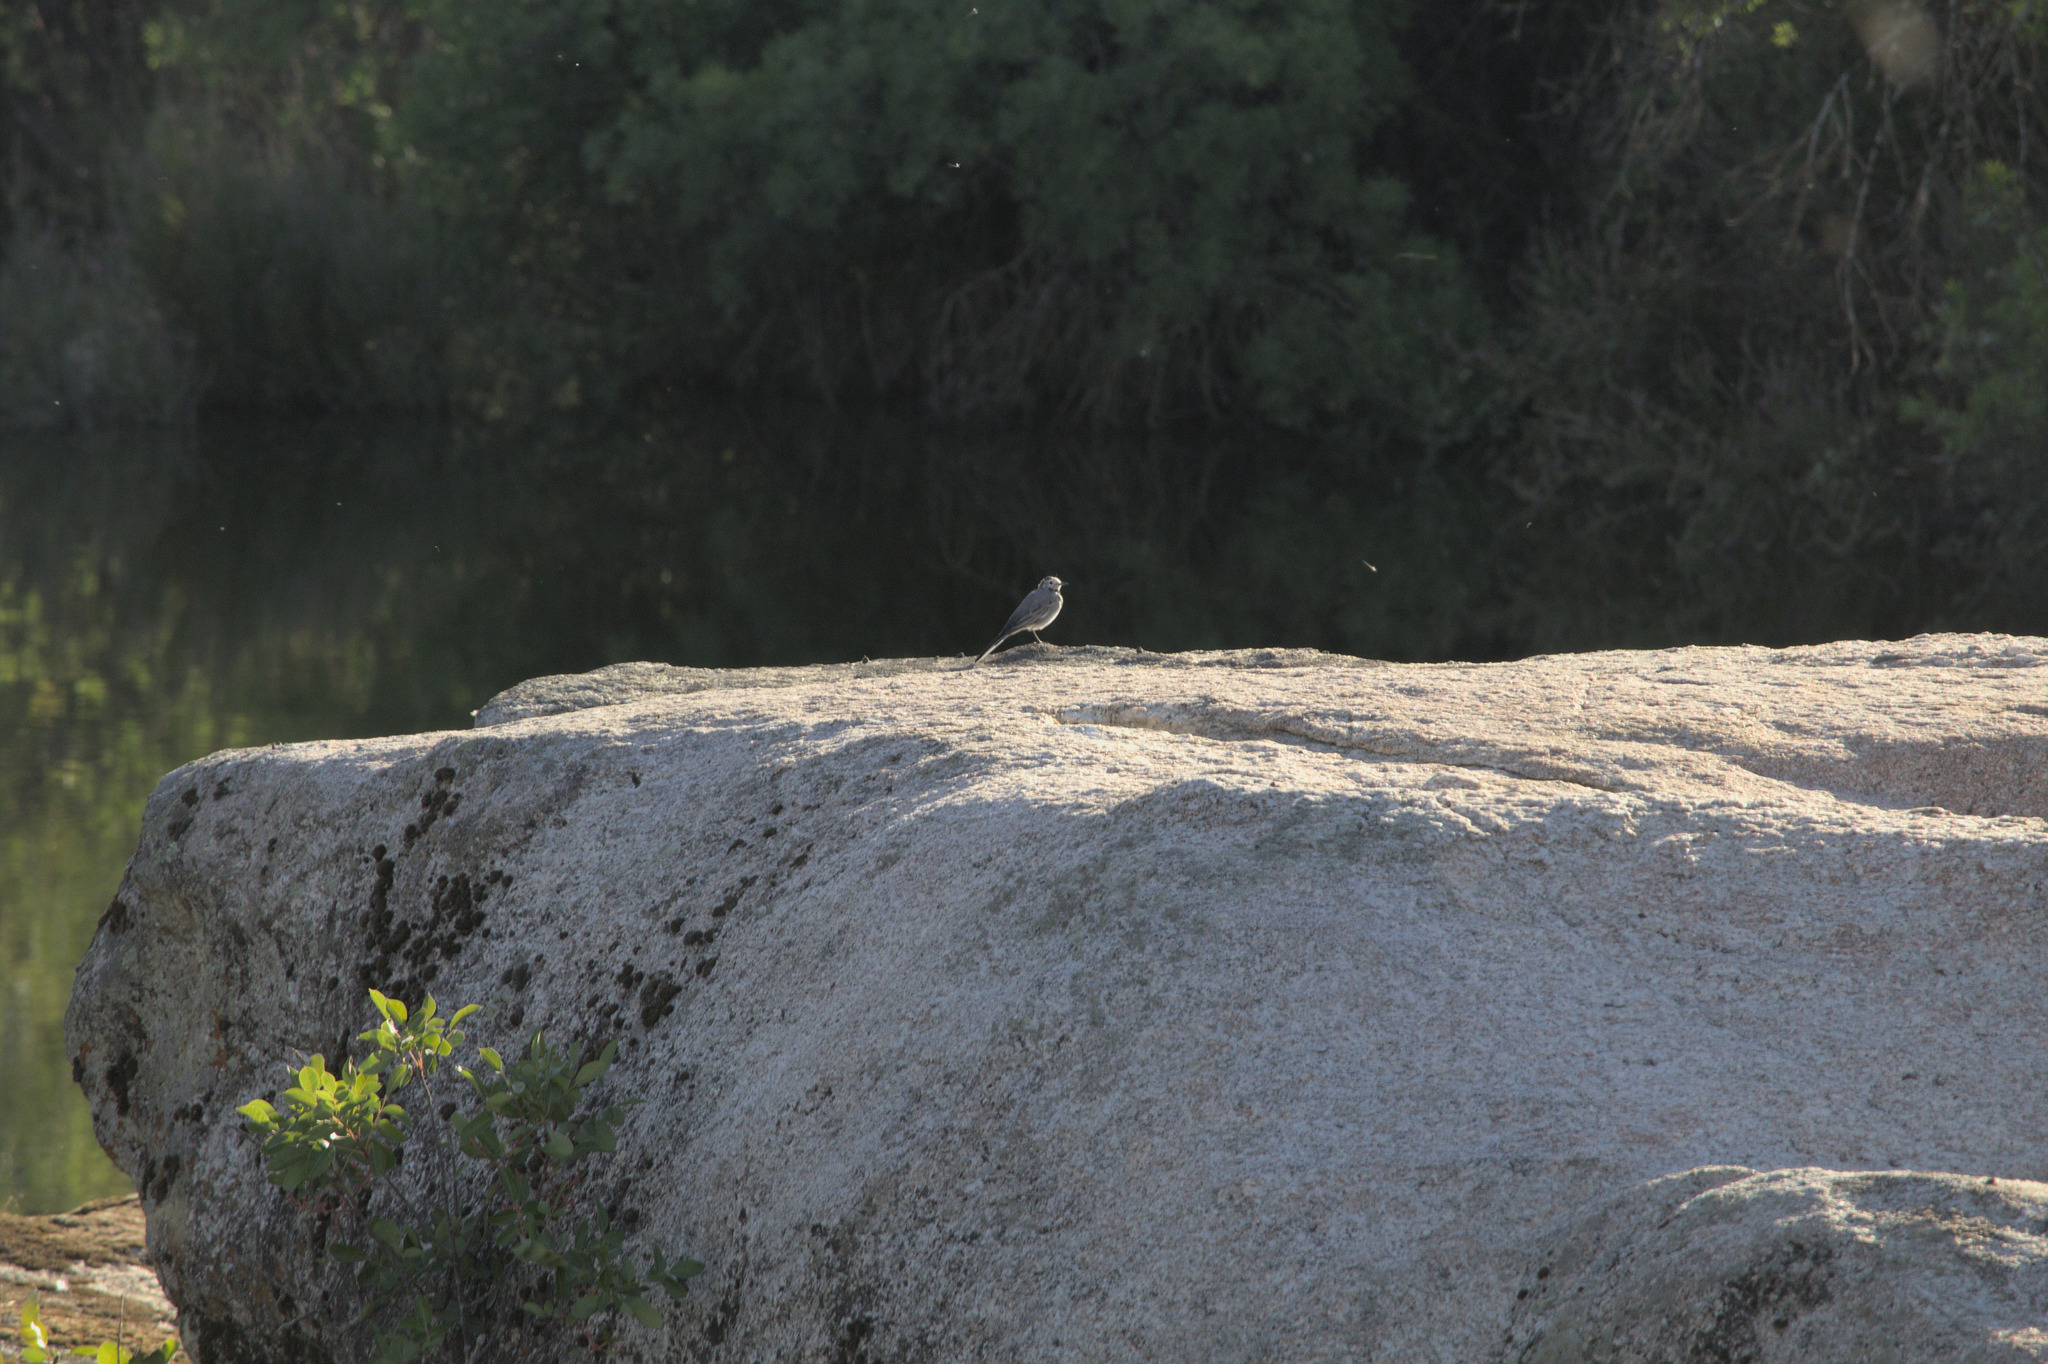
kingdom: Animalia
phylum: Chordata
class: Aves
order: Passeriformes
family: Motacillidae
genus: Motacilla
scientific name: Motacilla alba
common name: White wagtail
